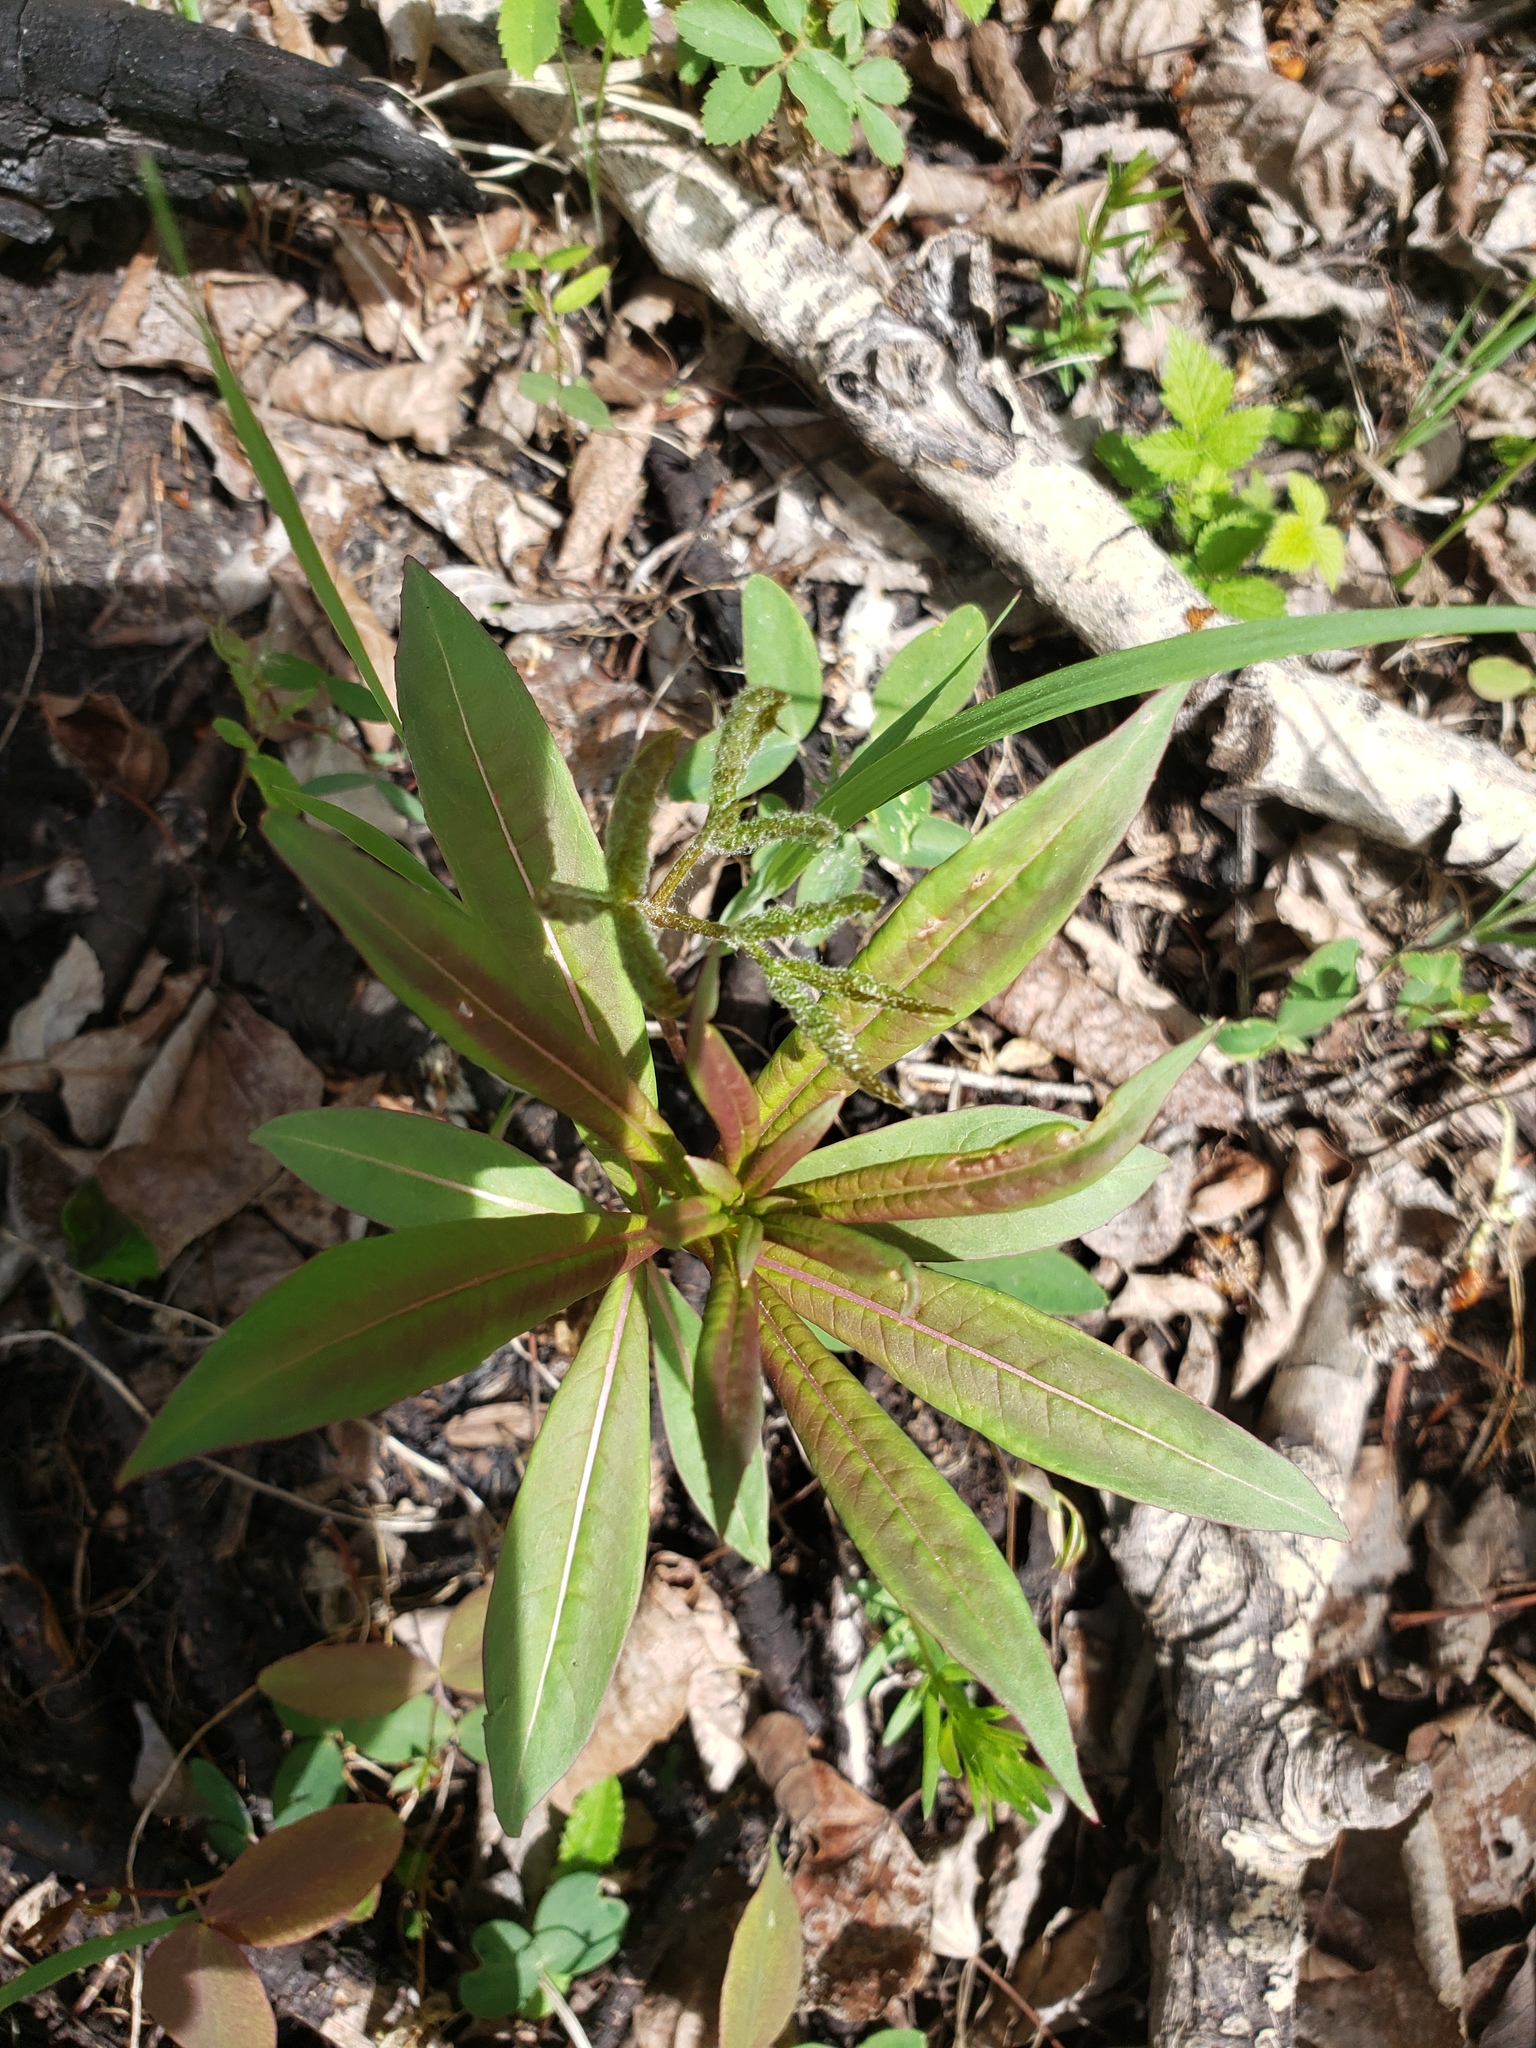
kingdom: Plantae
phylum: Tracheophyta
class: Magnoliopsida
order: Myrtales
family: Onagraceae
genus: Chamaenerion
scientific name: Chamaenerion angustifolium
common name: Fireweed
